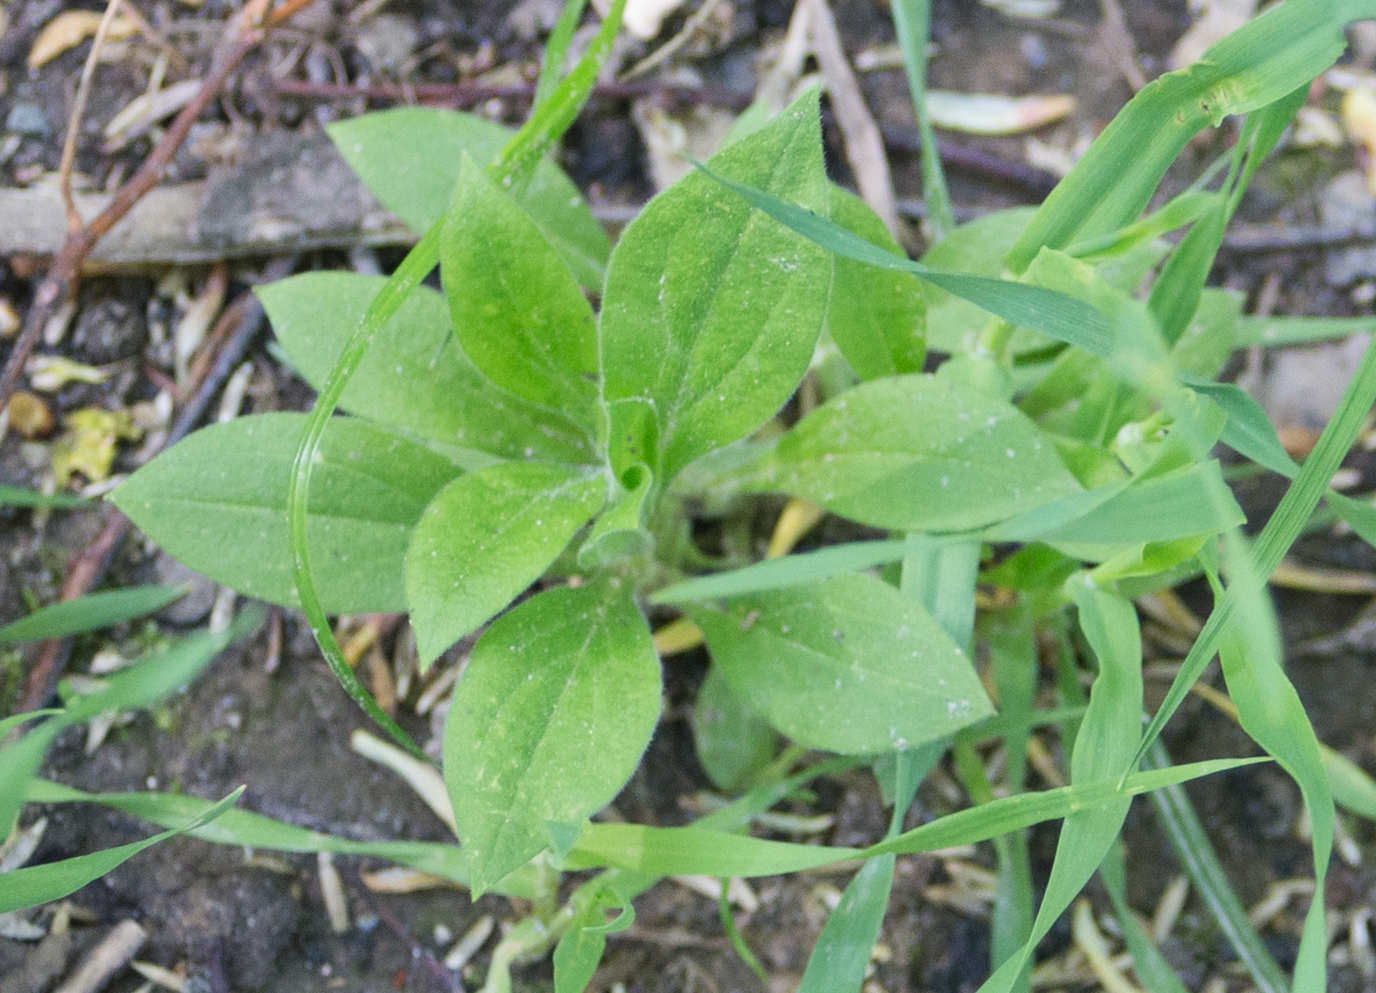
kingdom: Plantae
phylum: Tracheophyta
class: Magnoliopsida
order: Caryophyllales
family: Caryophyllaceae
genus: Silene
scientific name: Silene latifolia
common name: White campion
